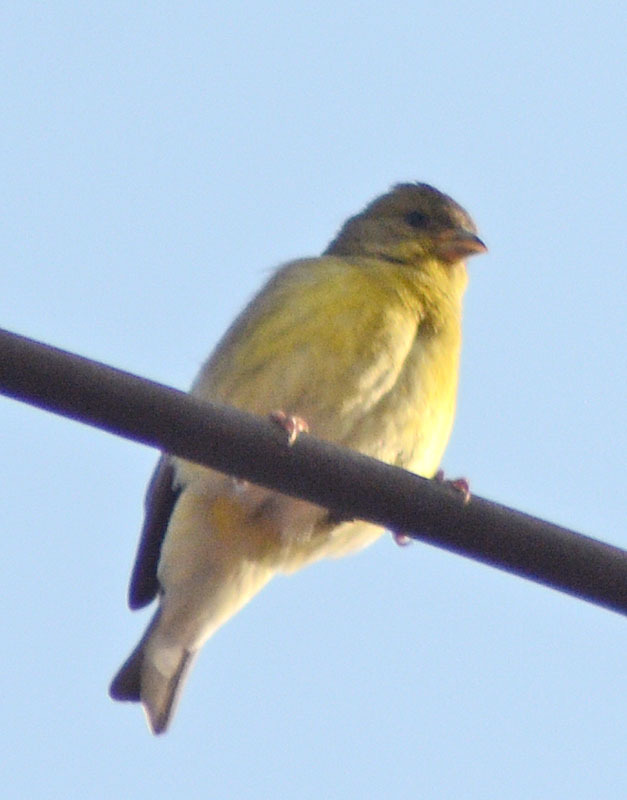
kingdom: Animalia
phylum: Chordata
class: Aves
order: Passeriformes
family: Fringillidae
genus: Spinus
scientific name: Spinus psaltria
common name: Lesser goldfinch
